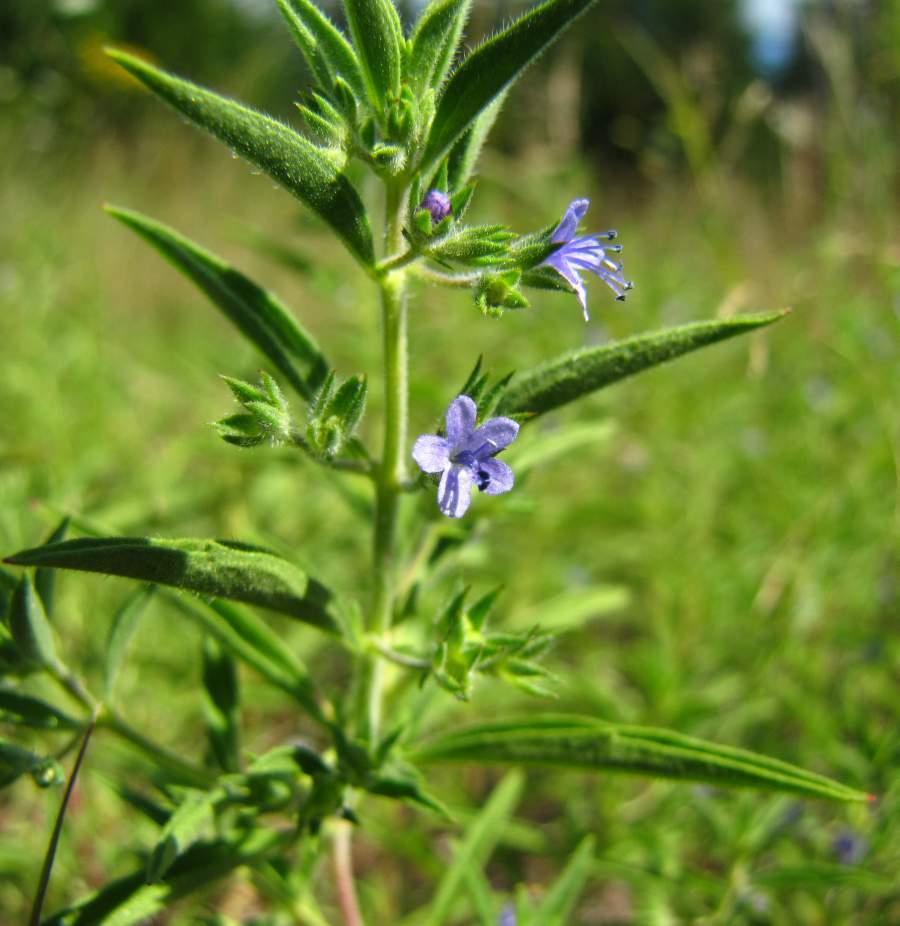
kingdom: Plantae
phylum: Tracheophyta
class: Magnoliopsida
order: Lamiales
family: Lamiaceae
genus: Trichostema
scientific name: Trichostema brachiatum
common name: False pennyroyal
